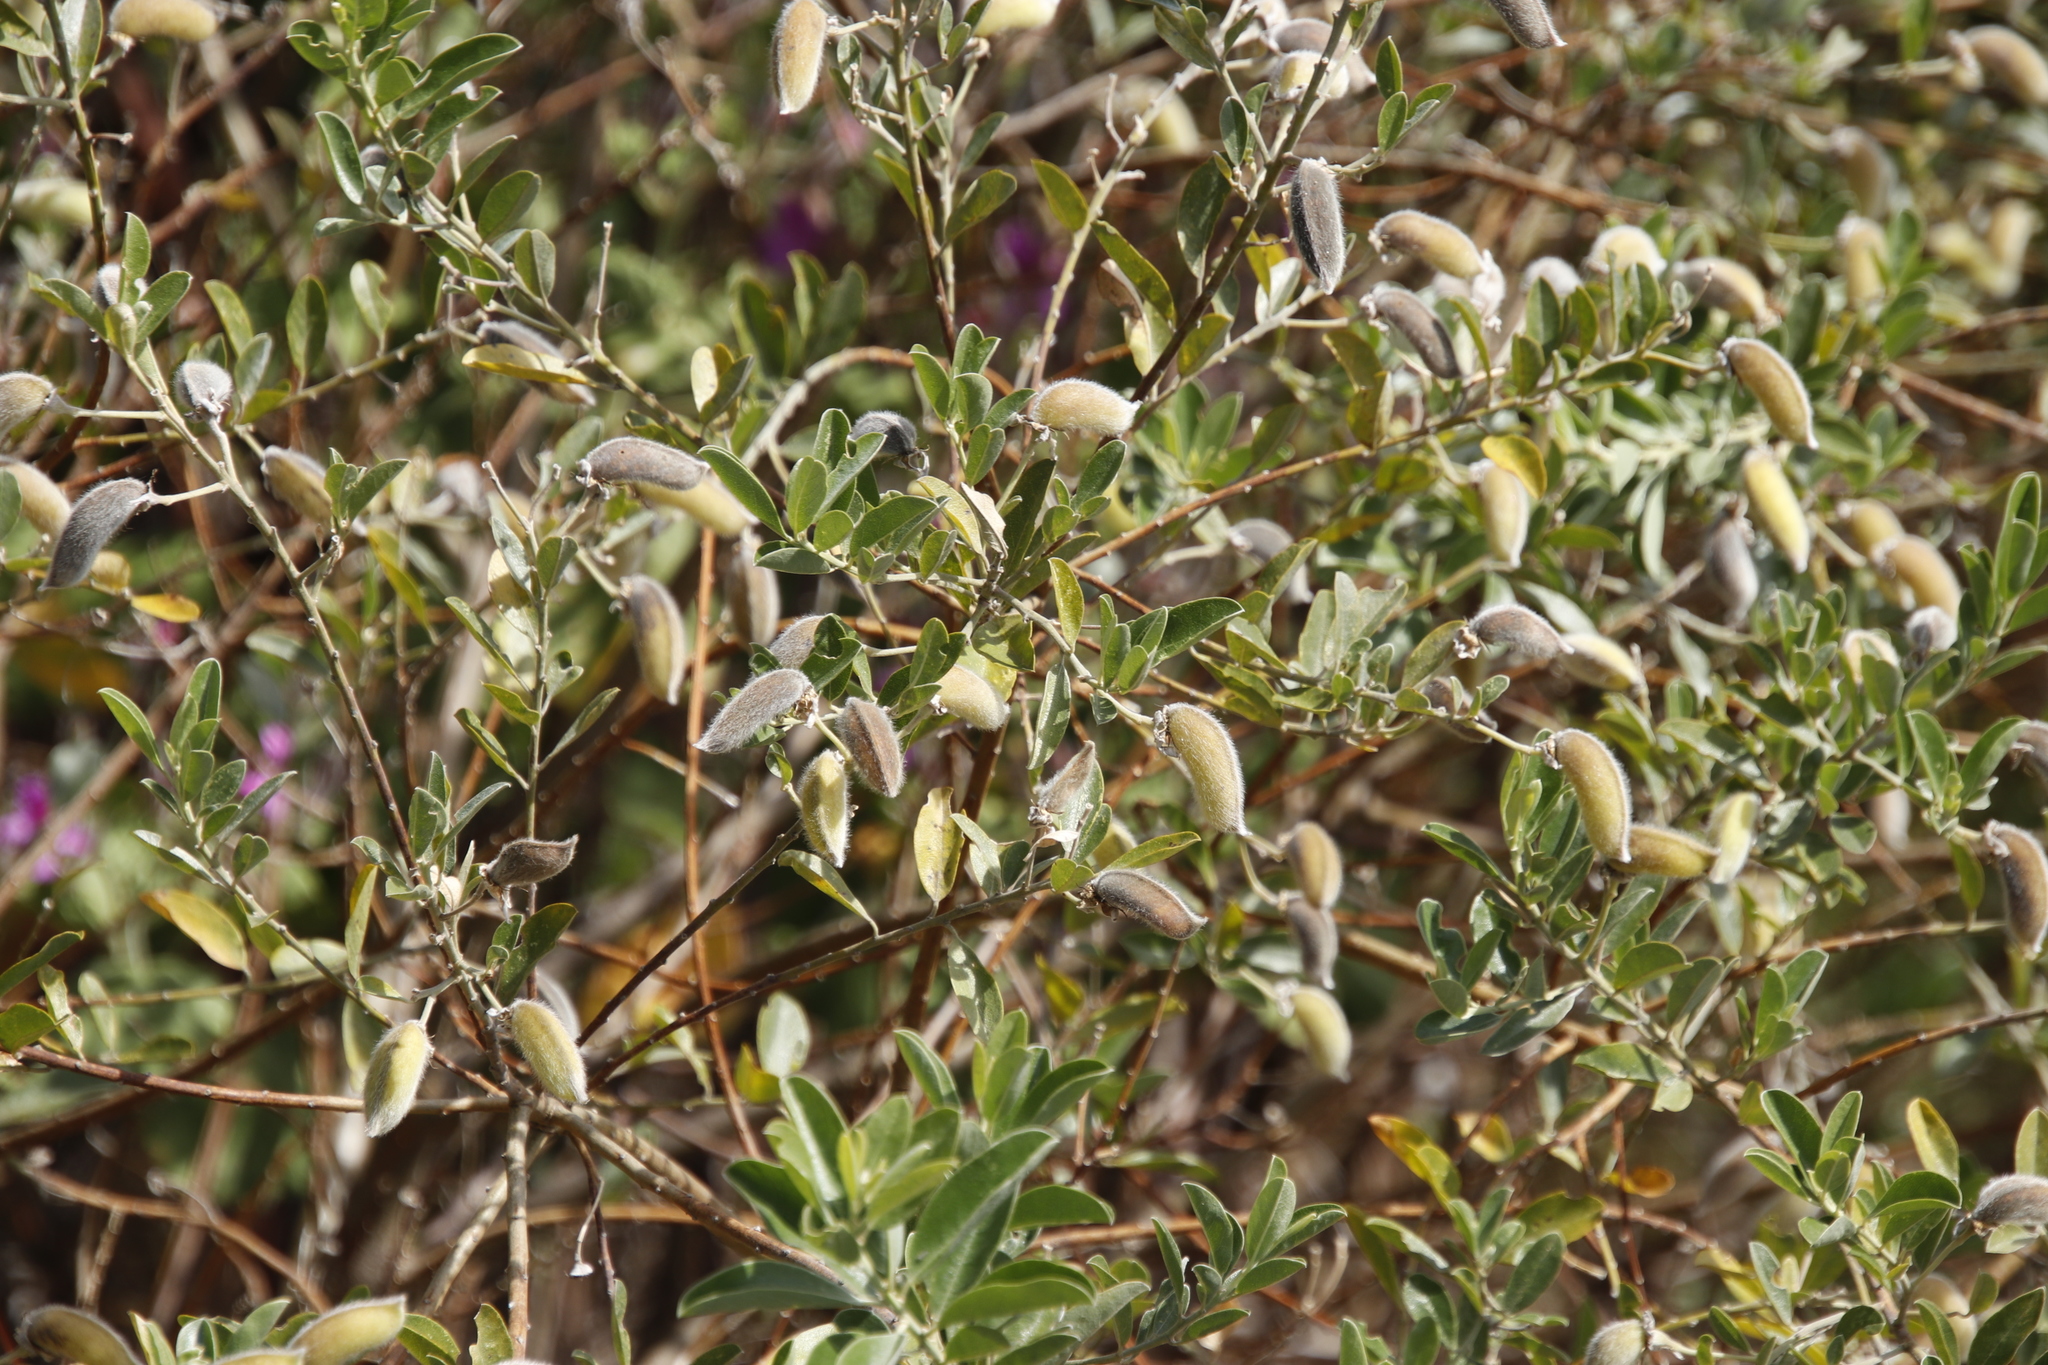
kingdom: Plantae
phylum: Tracheophyta
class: Magnoliopsida
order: Fabales
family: Fabaceae
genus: Podalyria
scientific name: Podalyria calyptrata
